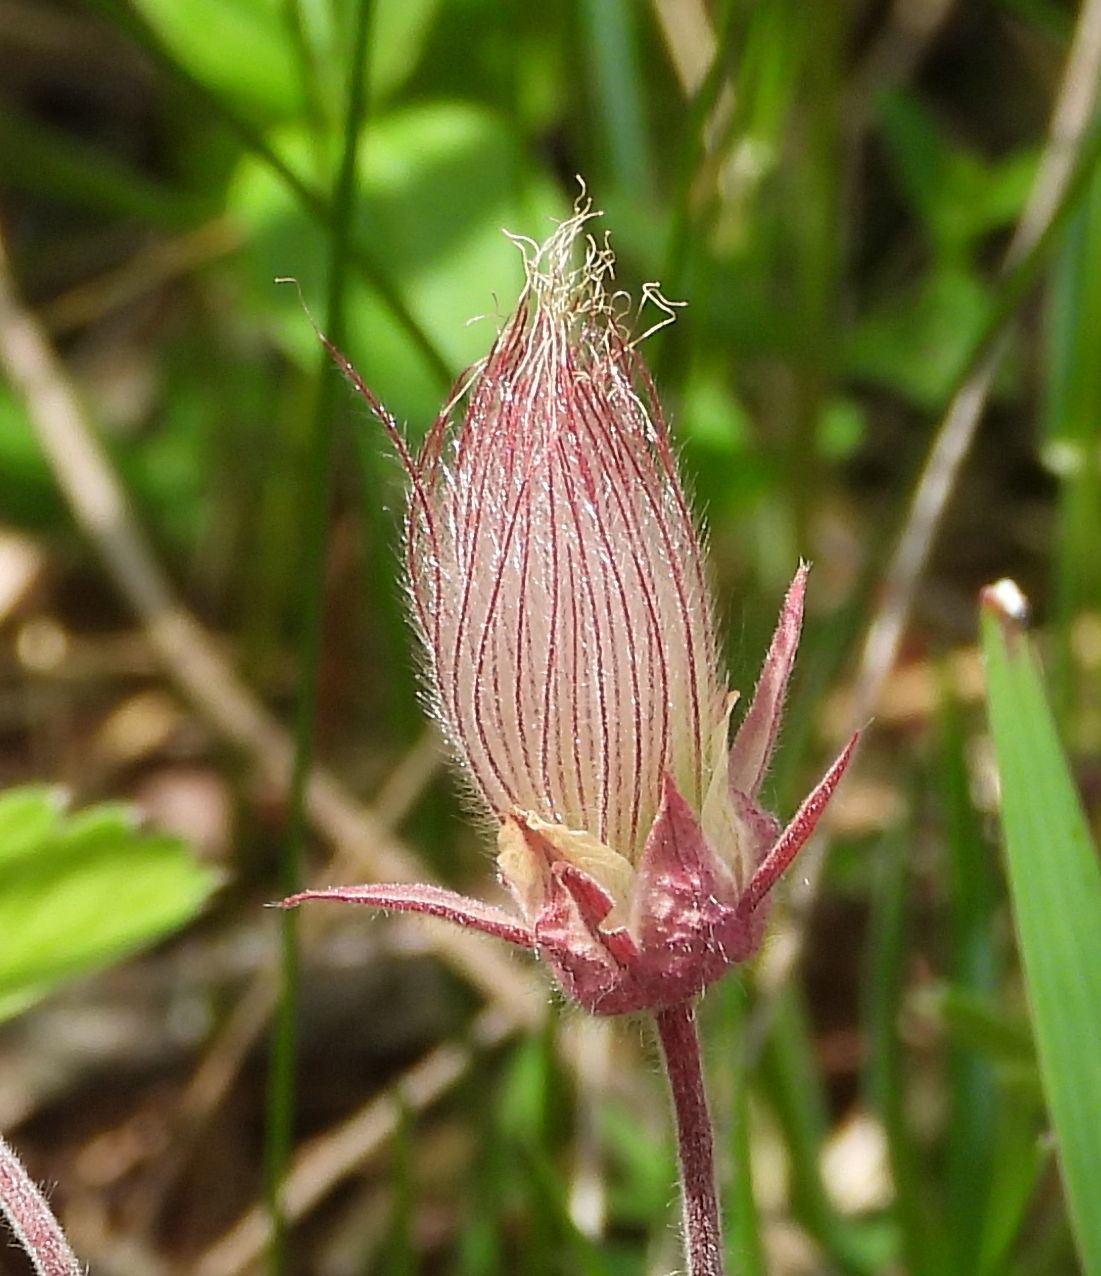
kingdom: Plantae
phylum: Tracheophyta
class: Magnoliopsida
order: Rosales
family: Rosaceae
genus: Geum
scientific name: Geum triflorum
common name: Old man's whiskers
